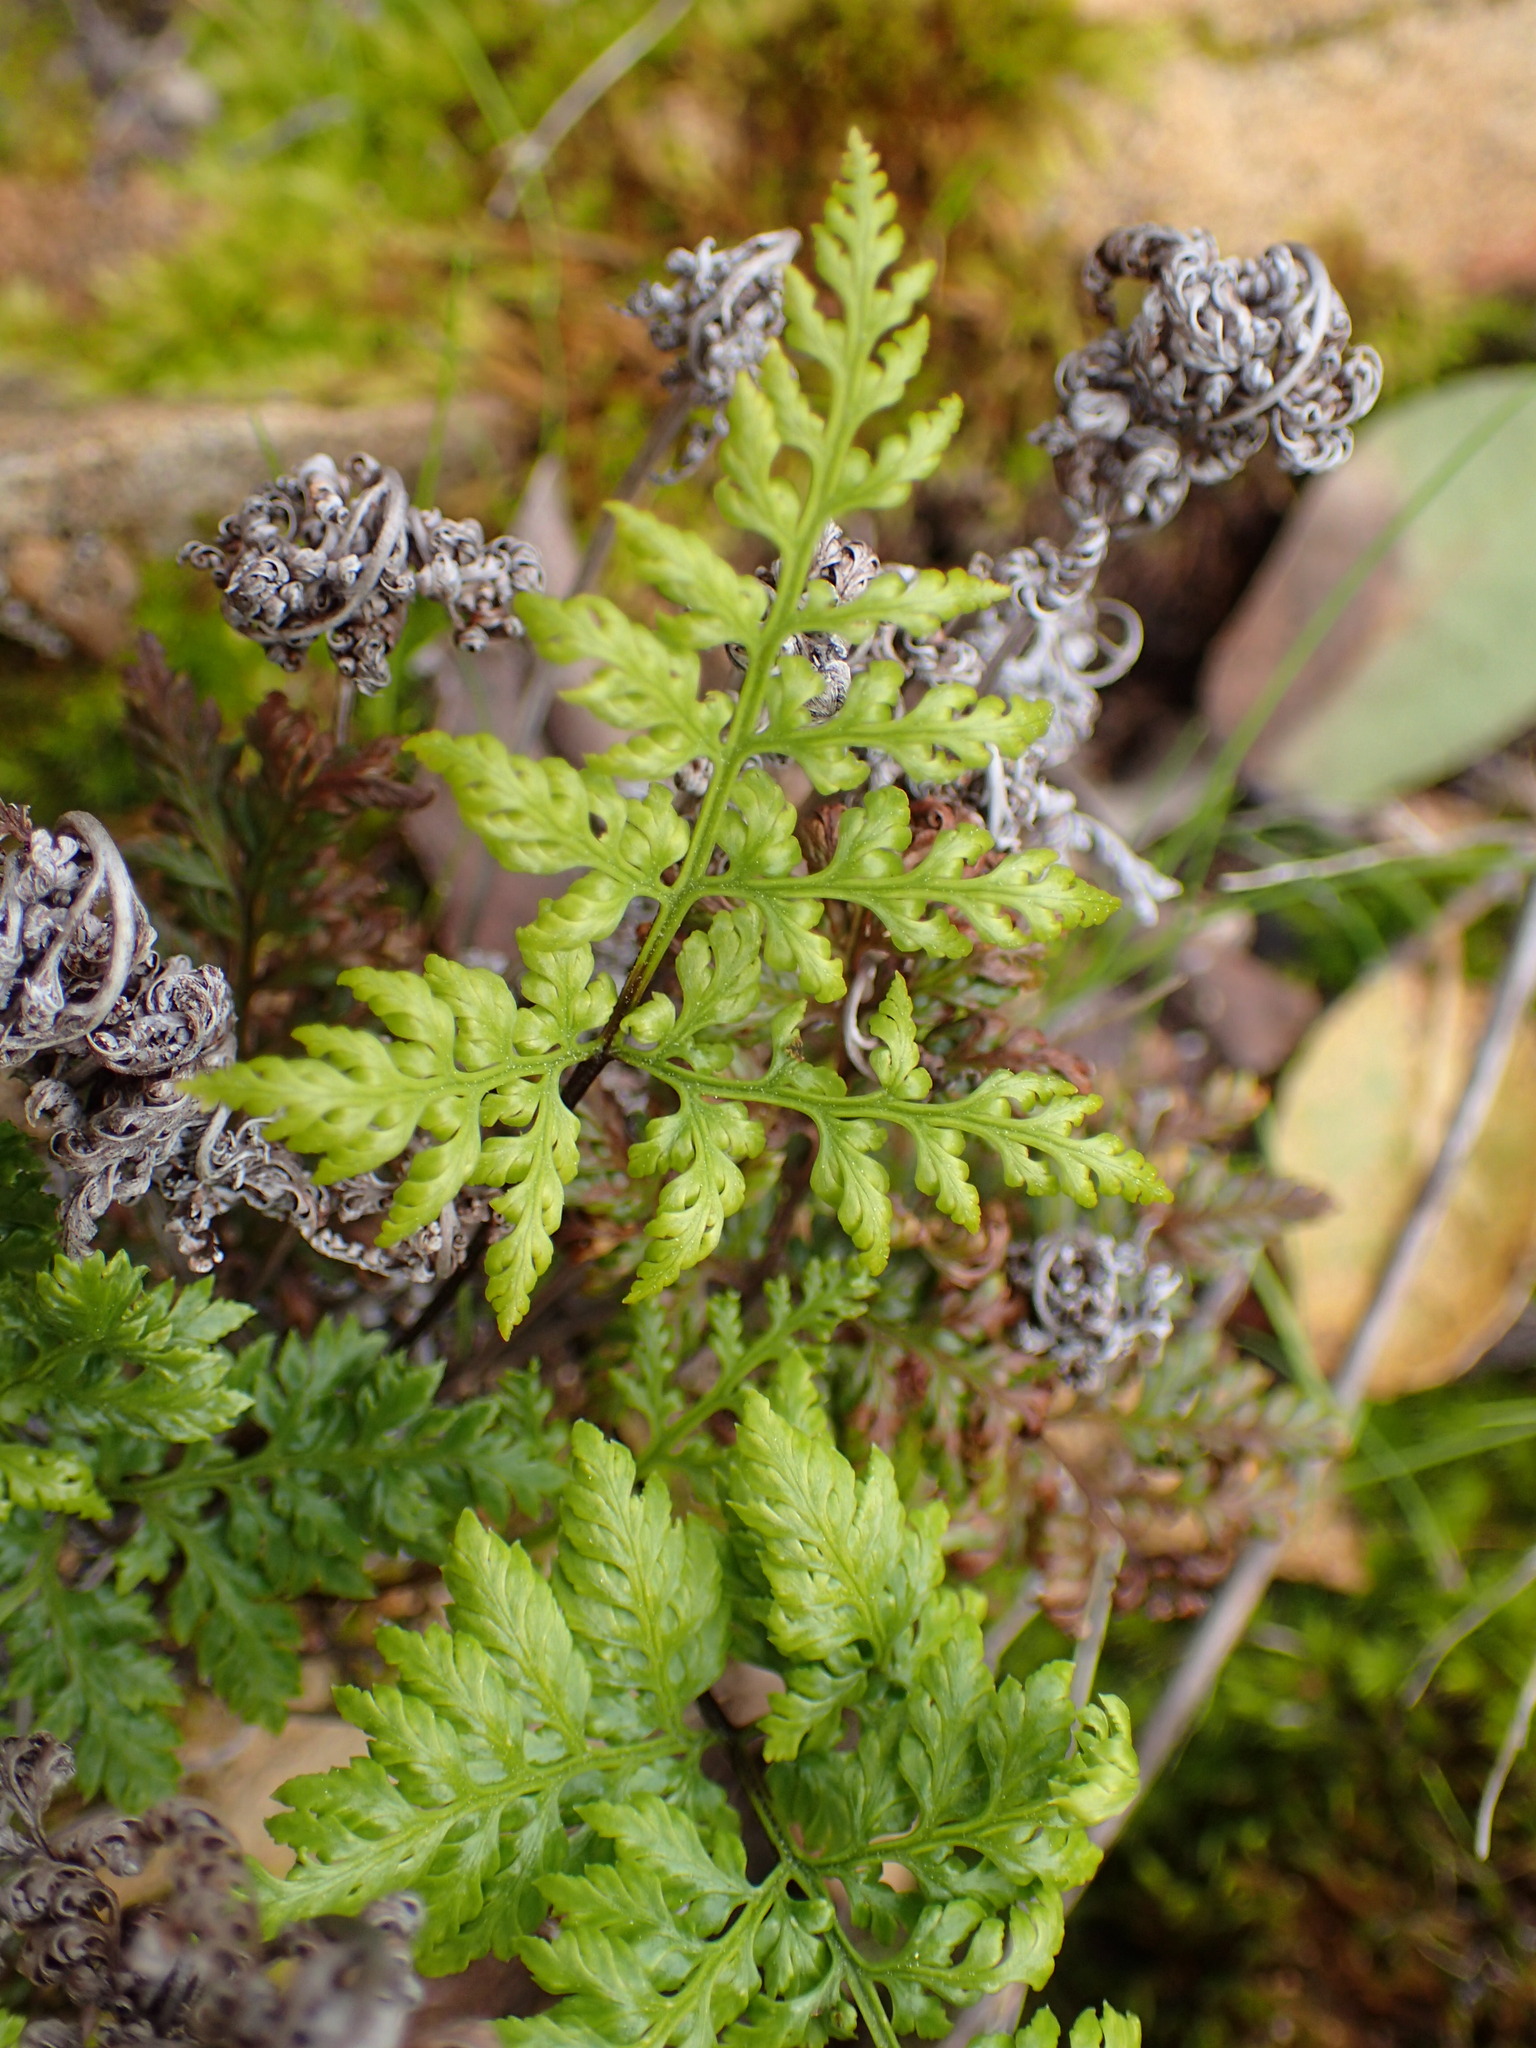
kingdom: Plantae
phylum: Tracheophyta
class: Polypodiopsida
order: Polypodiales
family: Pteridaceae
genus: Aspidotis
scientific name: Aspidotis californica
